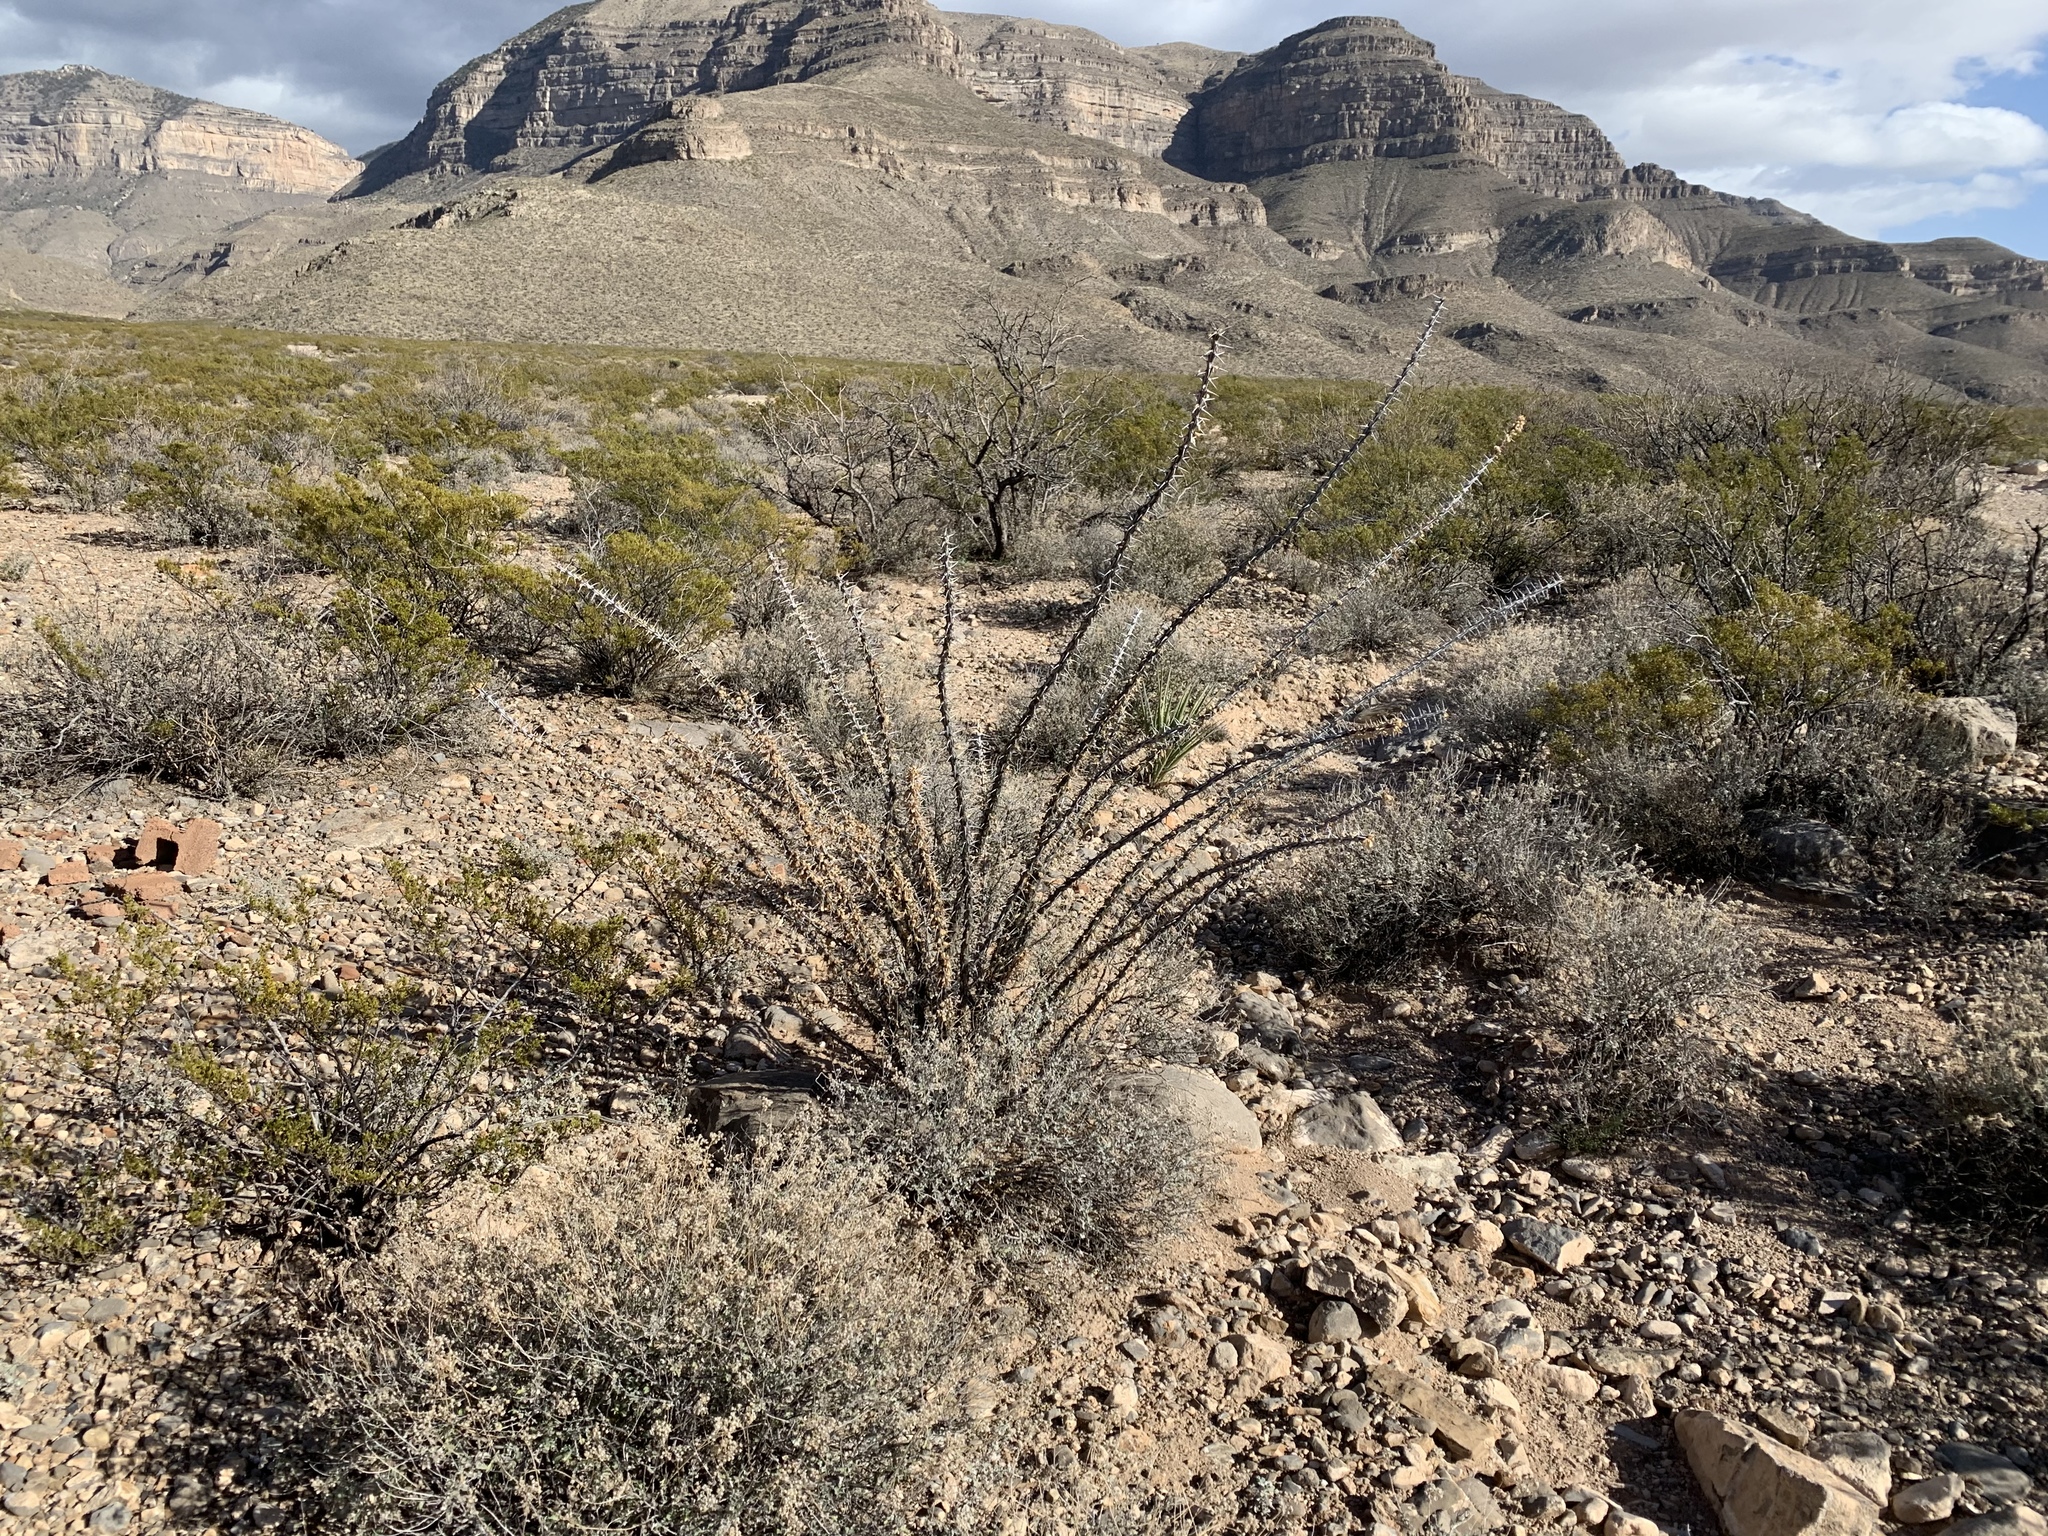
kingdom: Plantae
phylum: Tracheophyta
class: Magnoliopsida
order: Ericales
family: Fouquieriaceae
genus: Fouquieria
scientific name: Fouquieria splendens
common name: Vine-cactus
